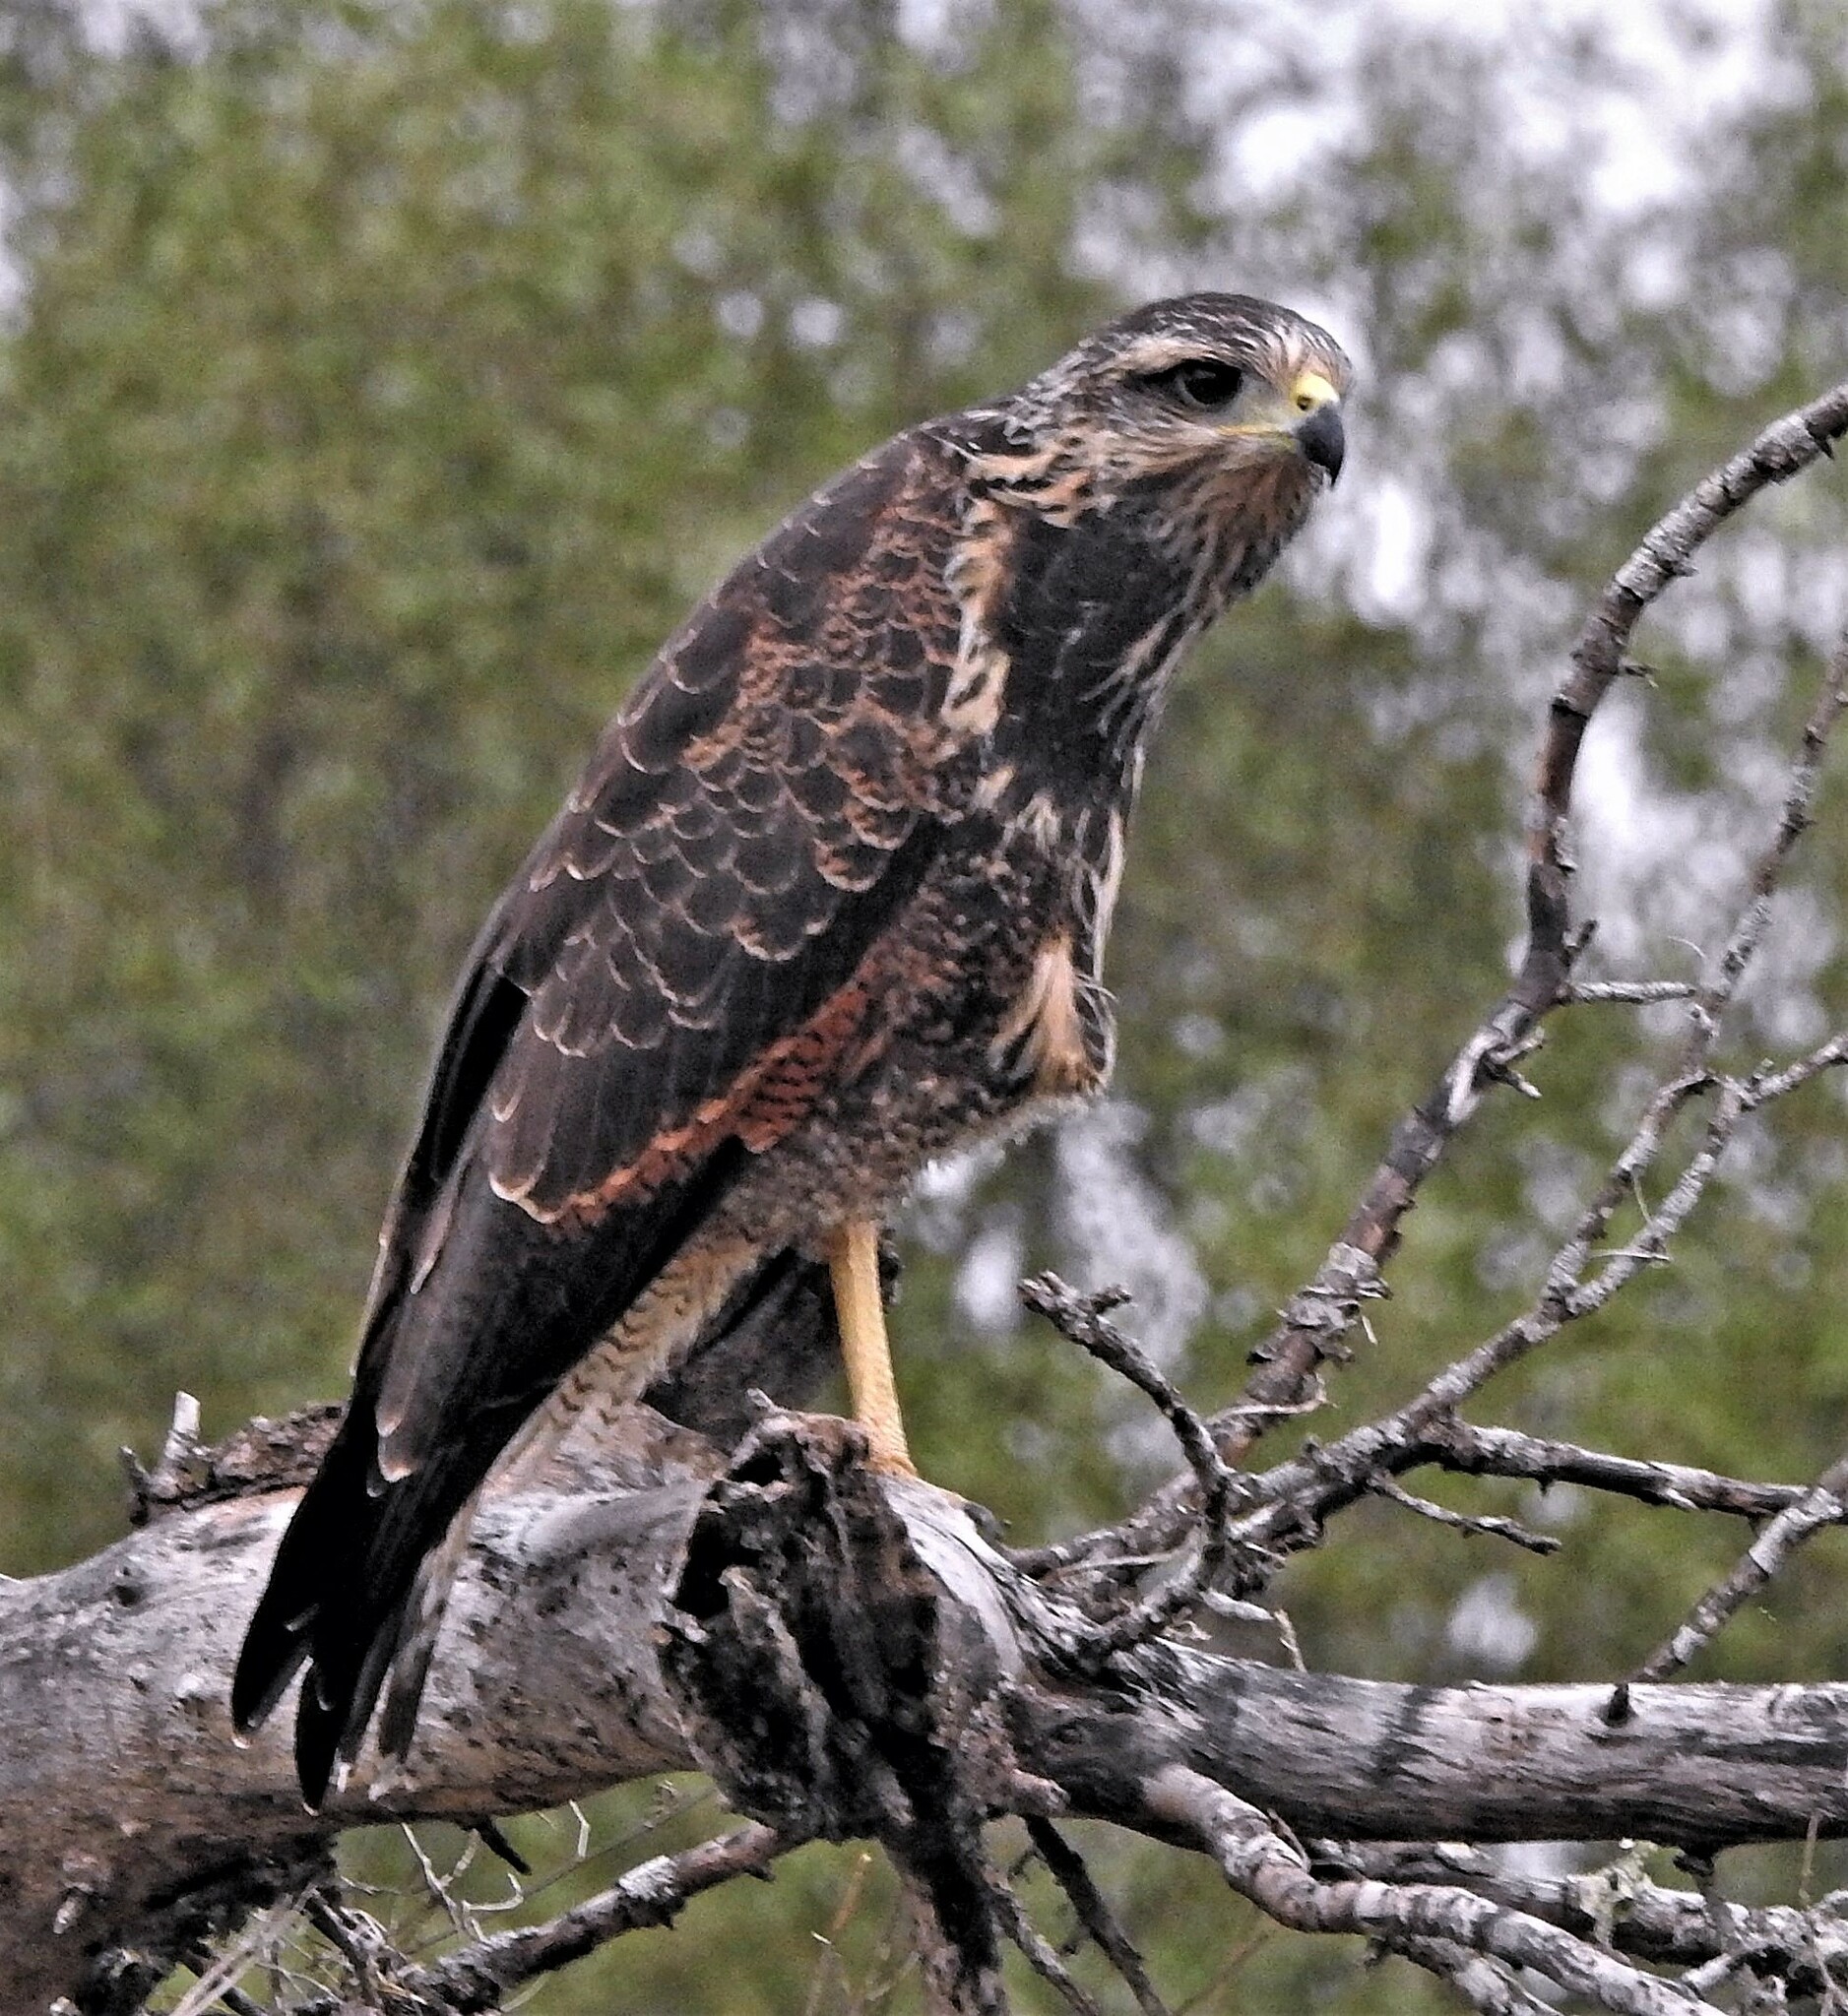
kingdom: Animalia
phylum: Chordata
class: Aves
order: Accipitriformes
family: Accipitridae
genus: Buteogallus
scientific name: Buteogallus meridionalis
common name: Savanna hawk
